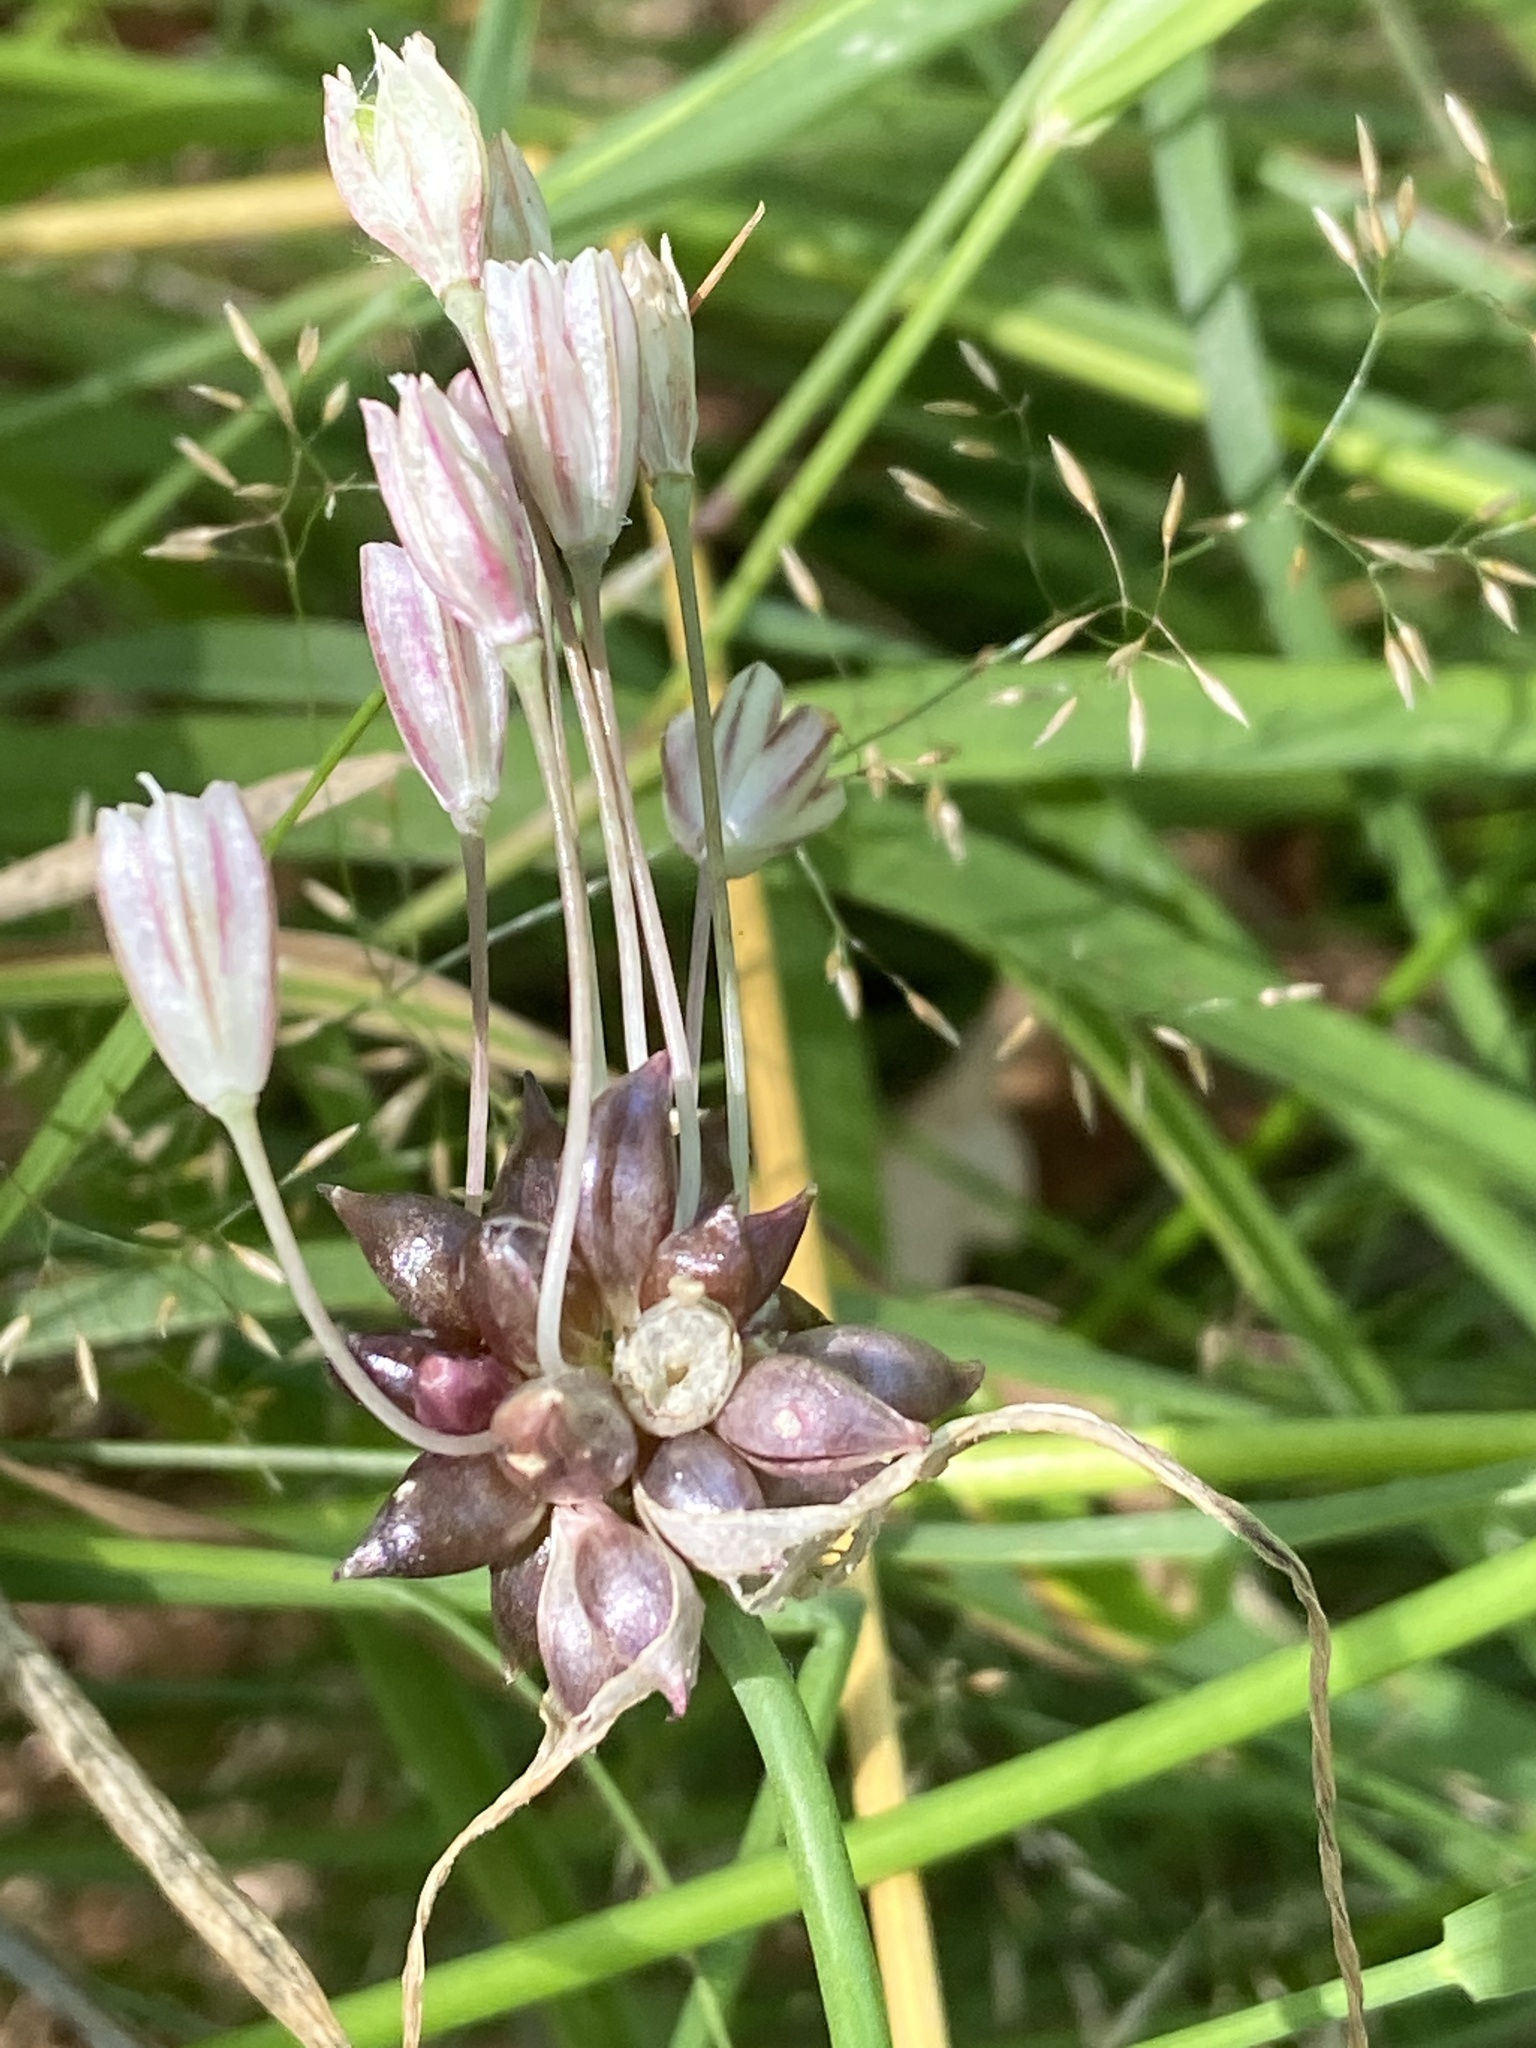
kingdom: Plantae
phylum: Tracheophyta
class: Liliopsida
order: Asparagales
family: Amaryllidaceae
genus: Allium
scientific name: Allium oleraceum
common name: Field garlic
